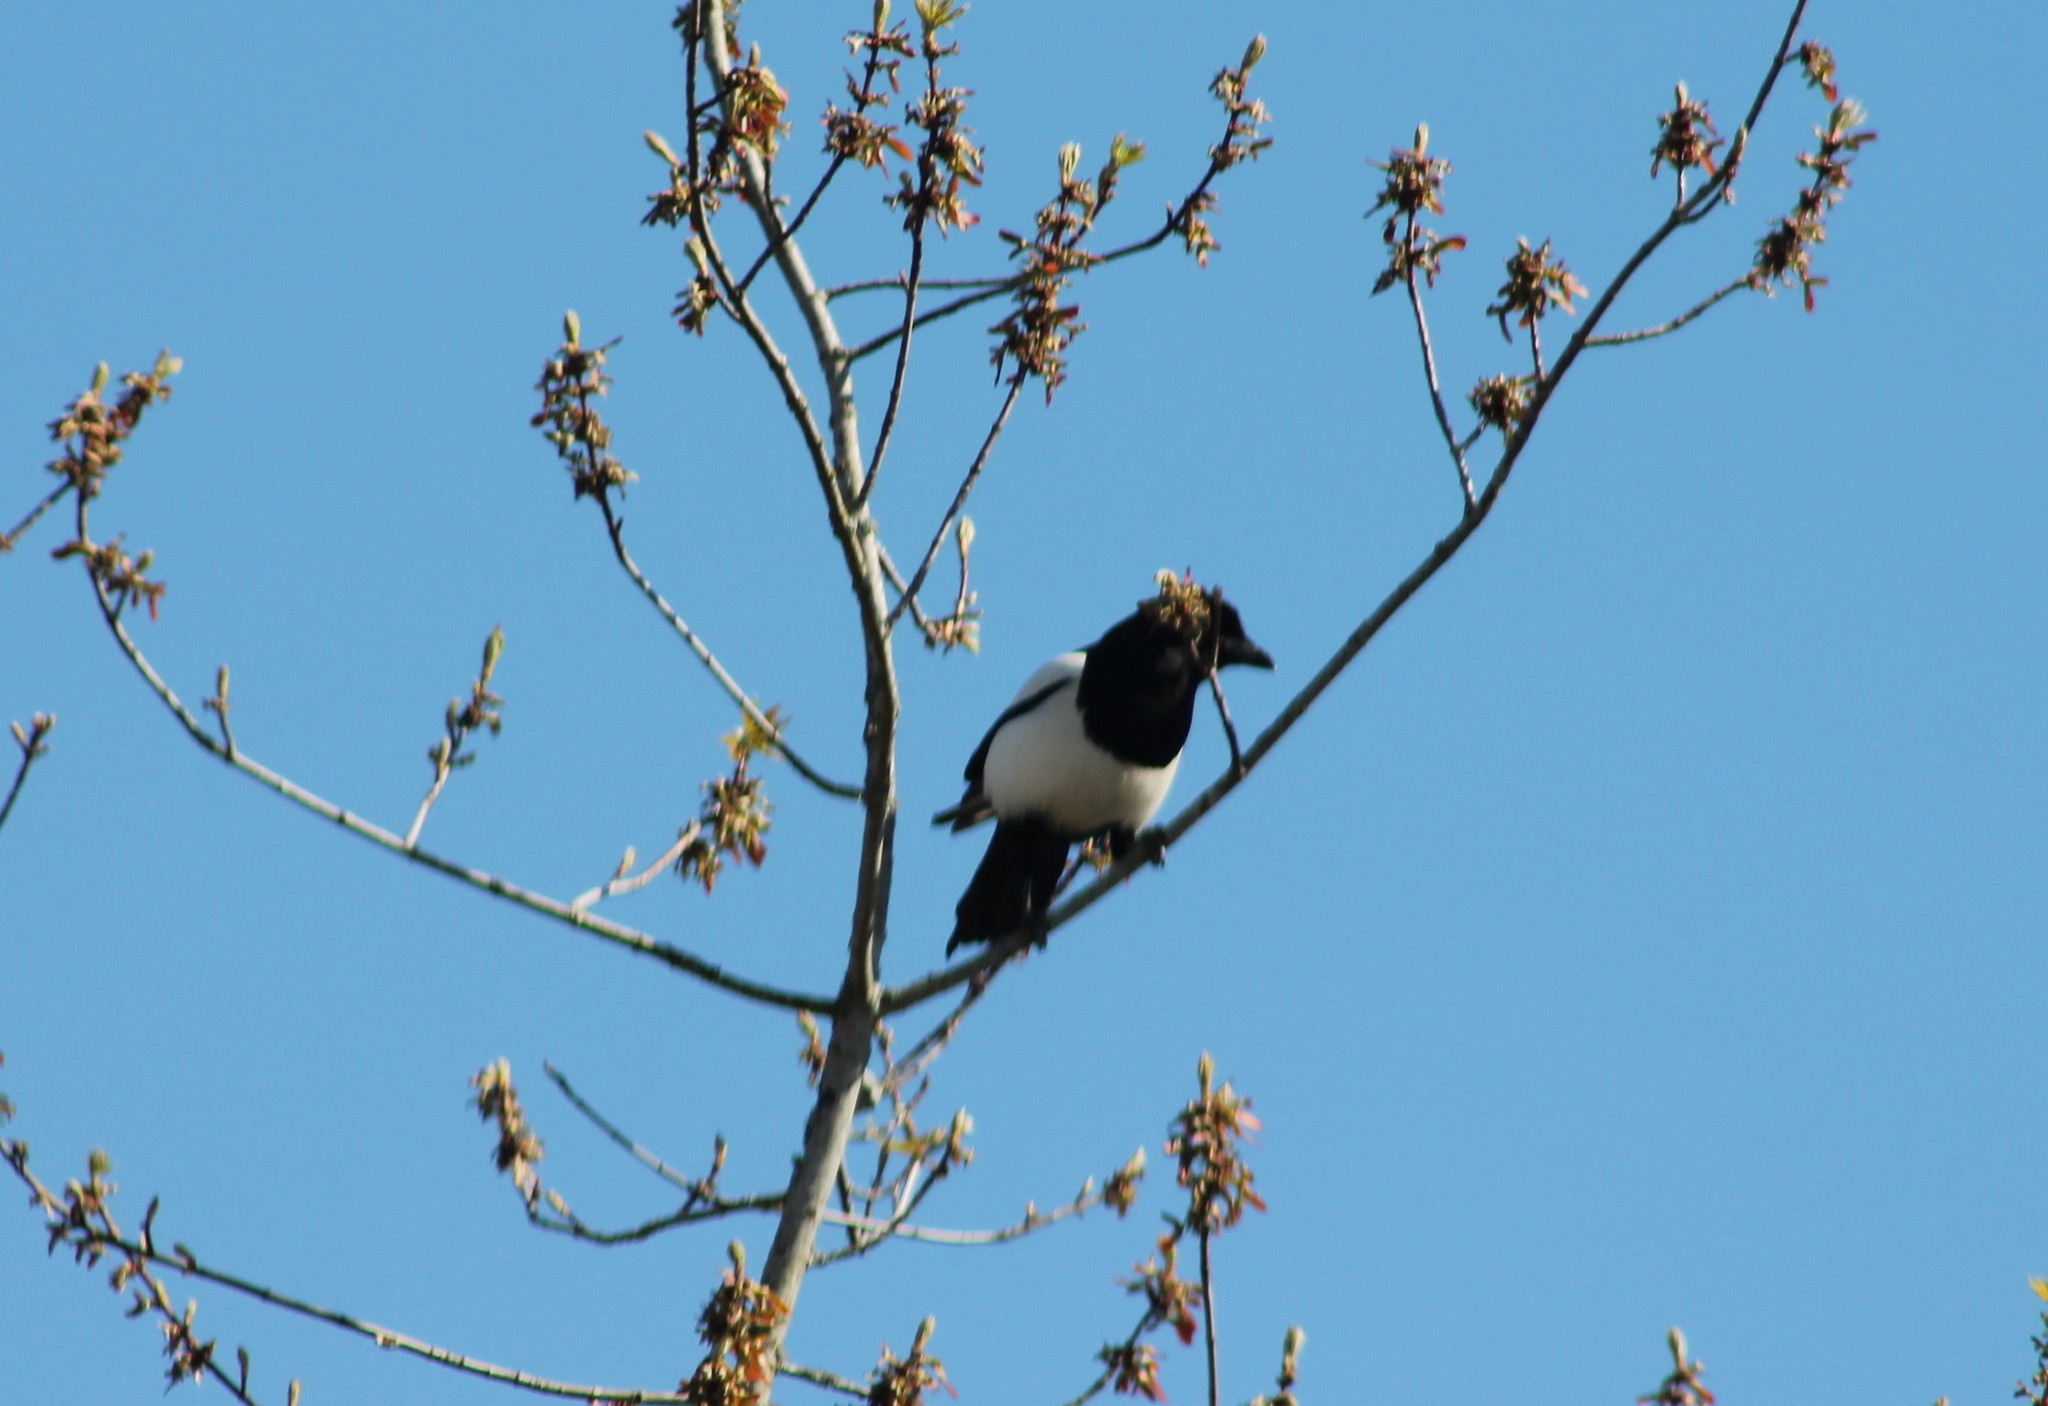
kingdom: Animalia
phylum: Chordata
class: Aves
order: Passeriformes
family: Corvidae
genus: Pica
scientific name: Pica pica
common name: Eurasian magpie
